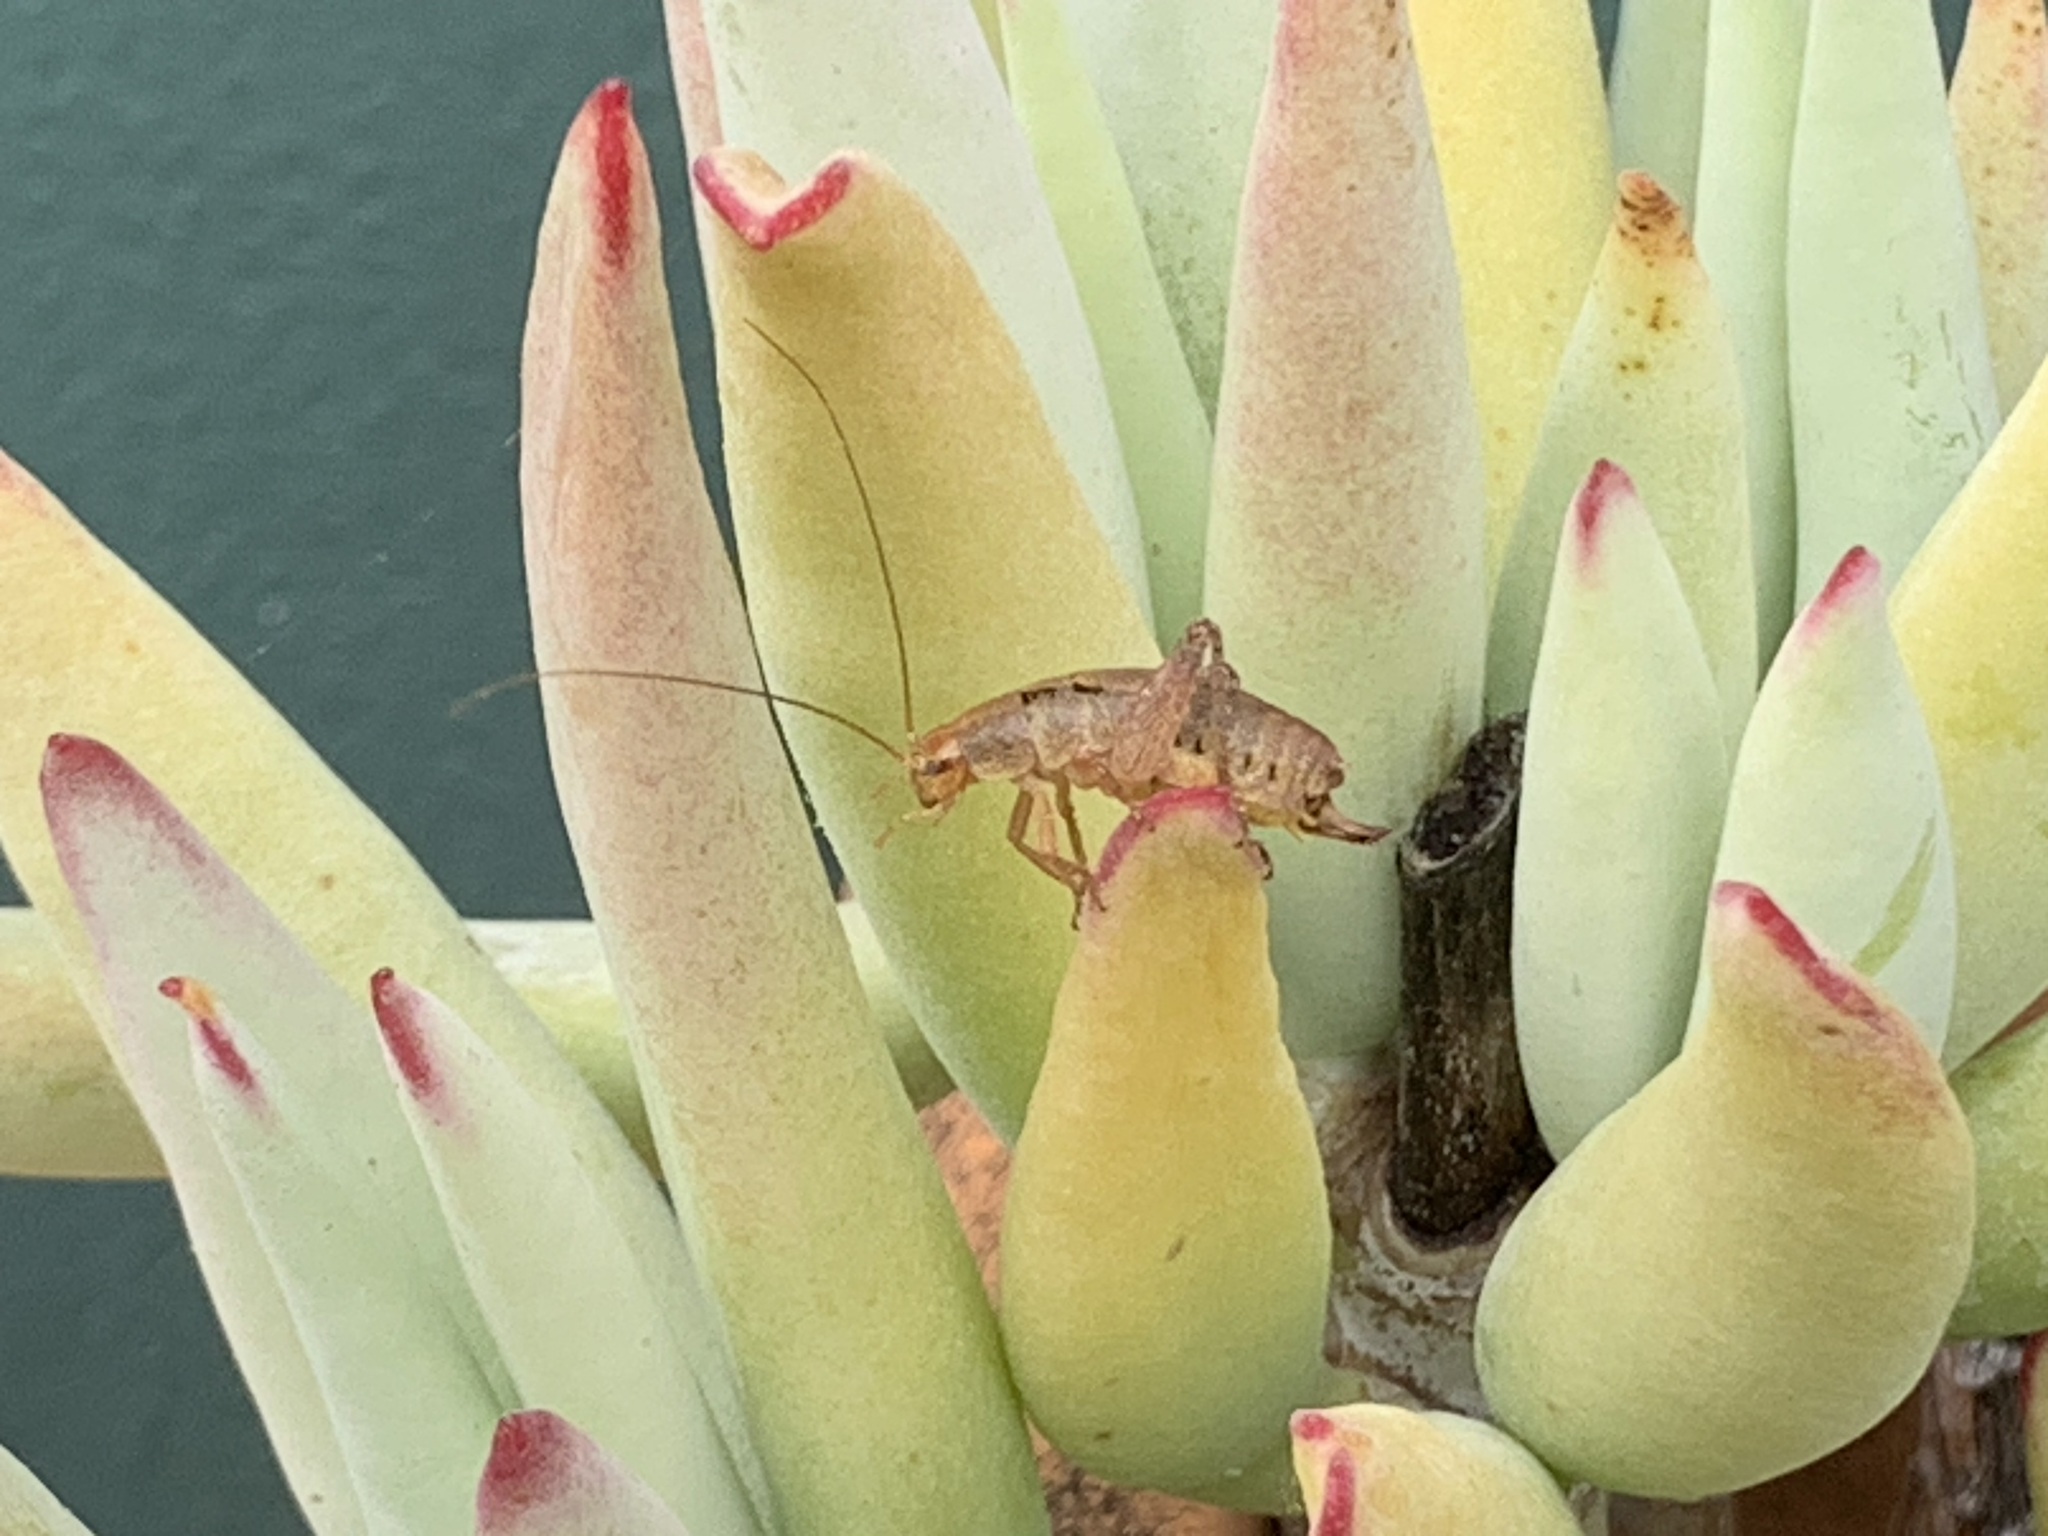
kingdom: Animalia
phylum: Arthropoda
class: Insecta
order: Orthoptera
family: Rhaphidophoridae
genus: Gammarotettix
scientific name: Gammarotettix bilobatus
